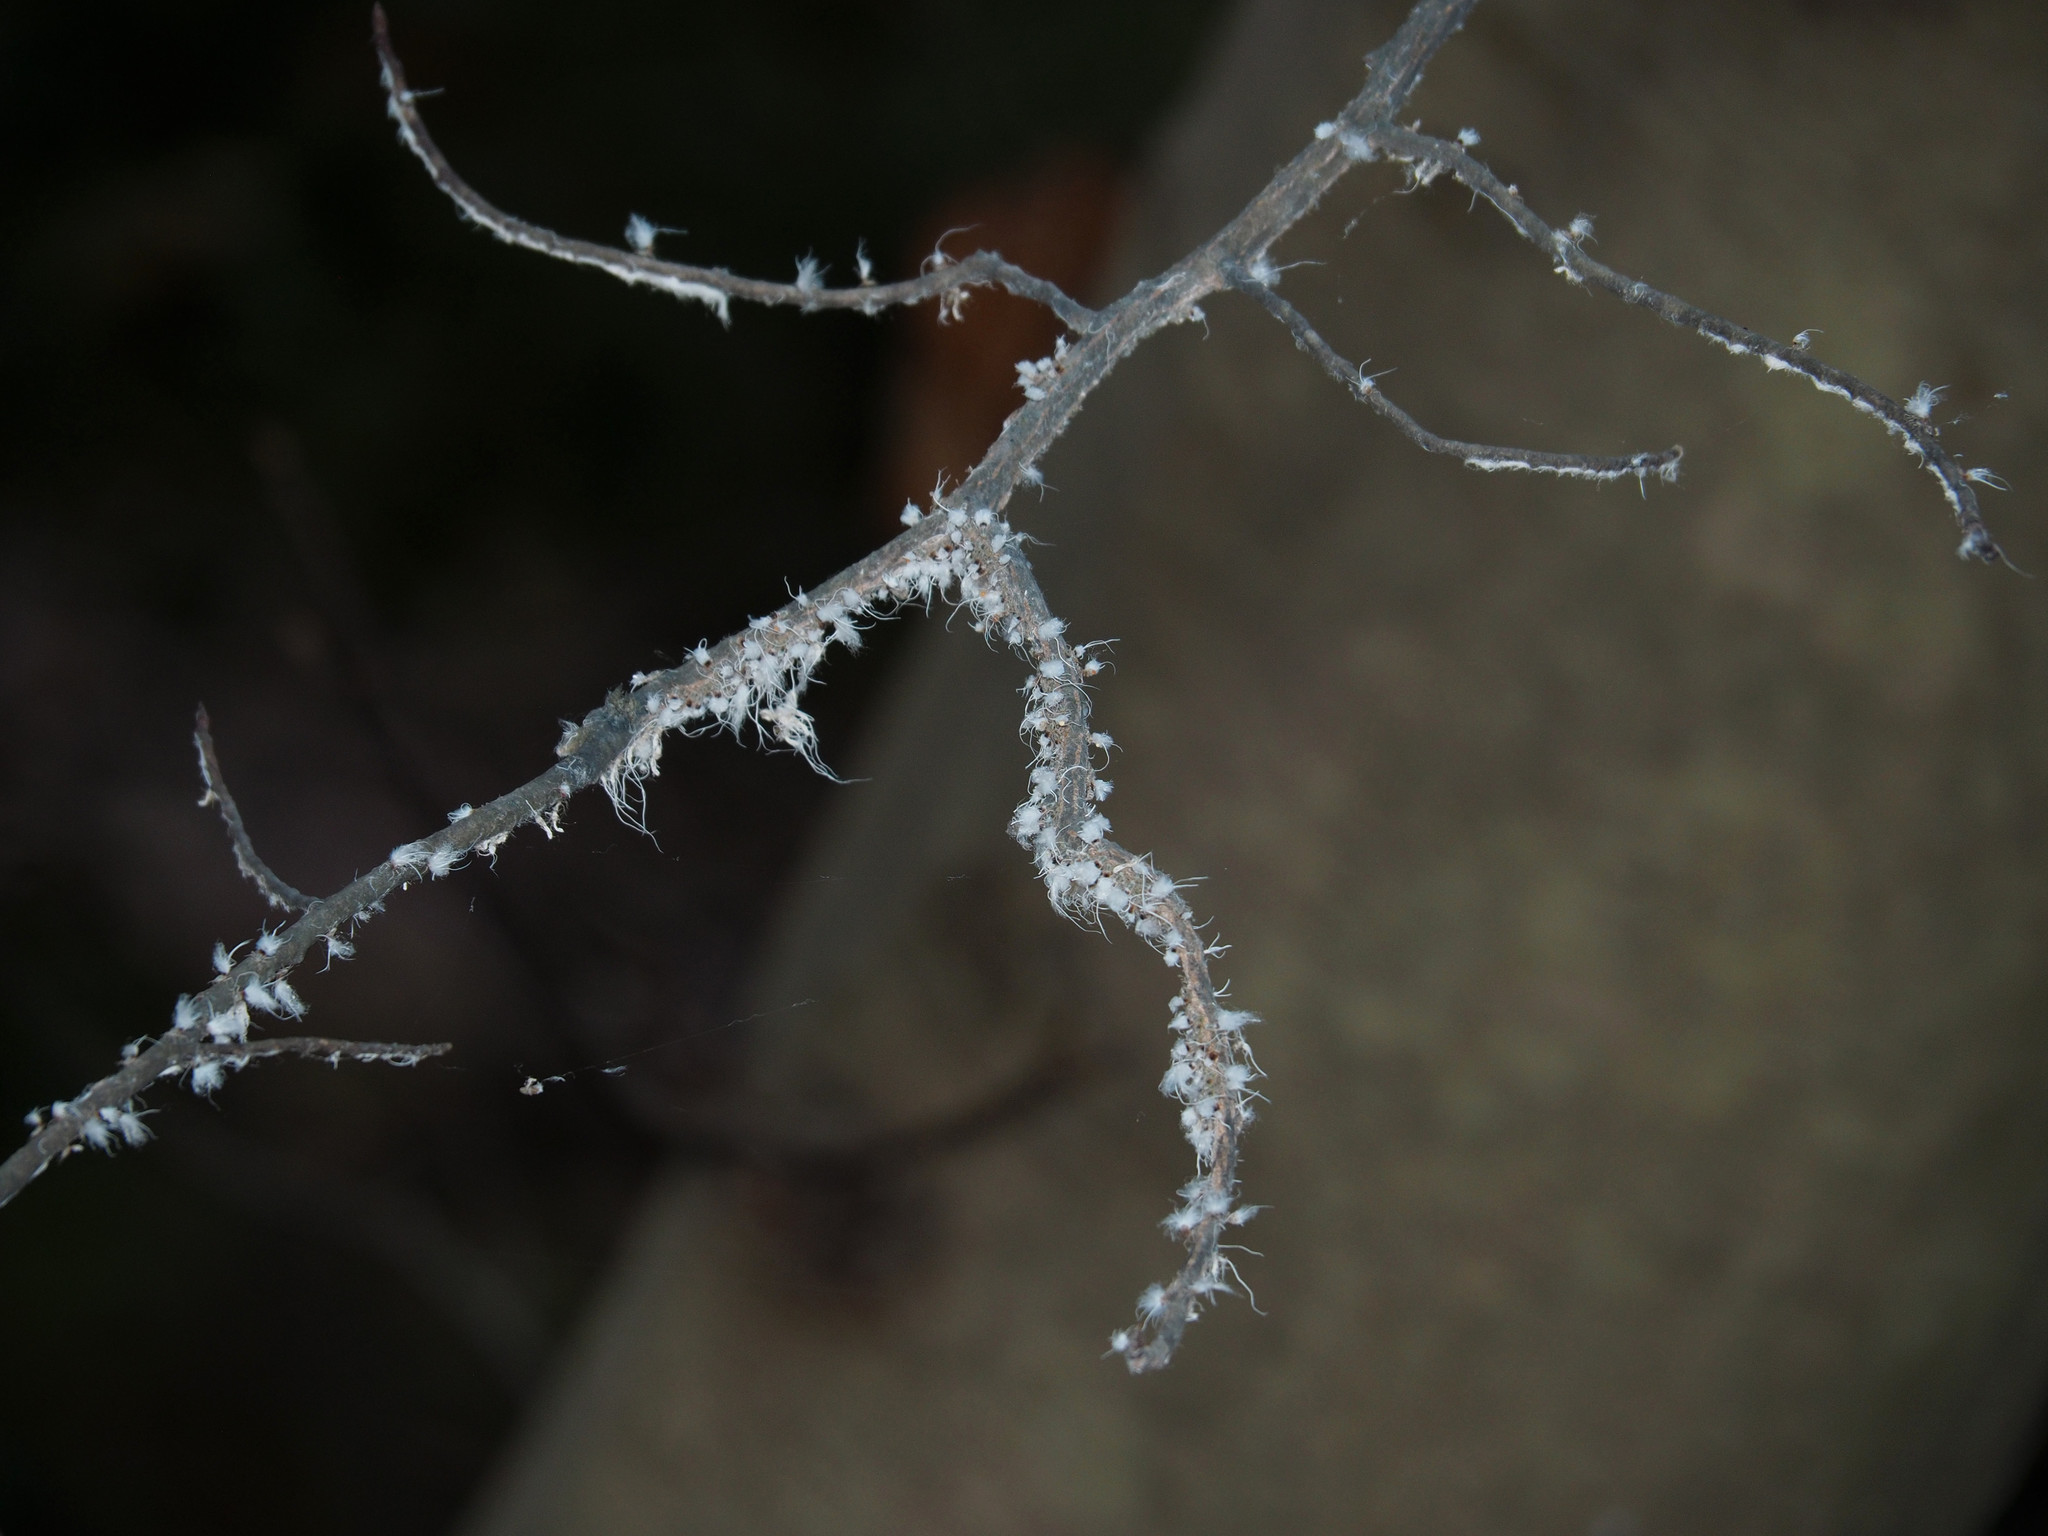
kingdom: Animalia
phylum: Arthropoda
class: Insecta
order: Hemiptera
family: Aphididae
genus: Grylloprociphilus
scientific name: Grylloprociphilus imbricator
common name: Beech blight aphid
